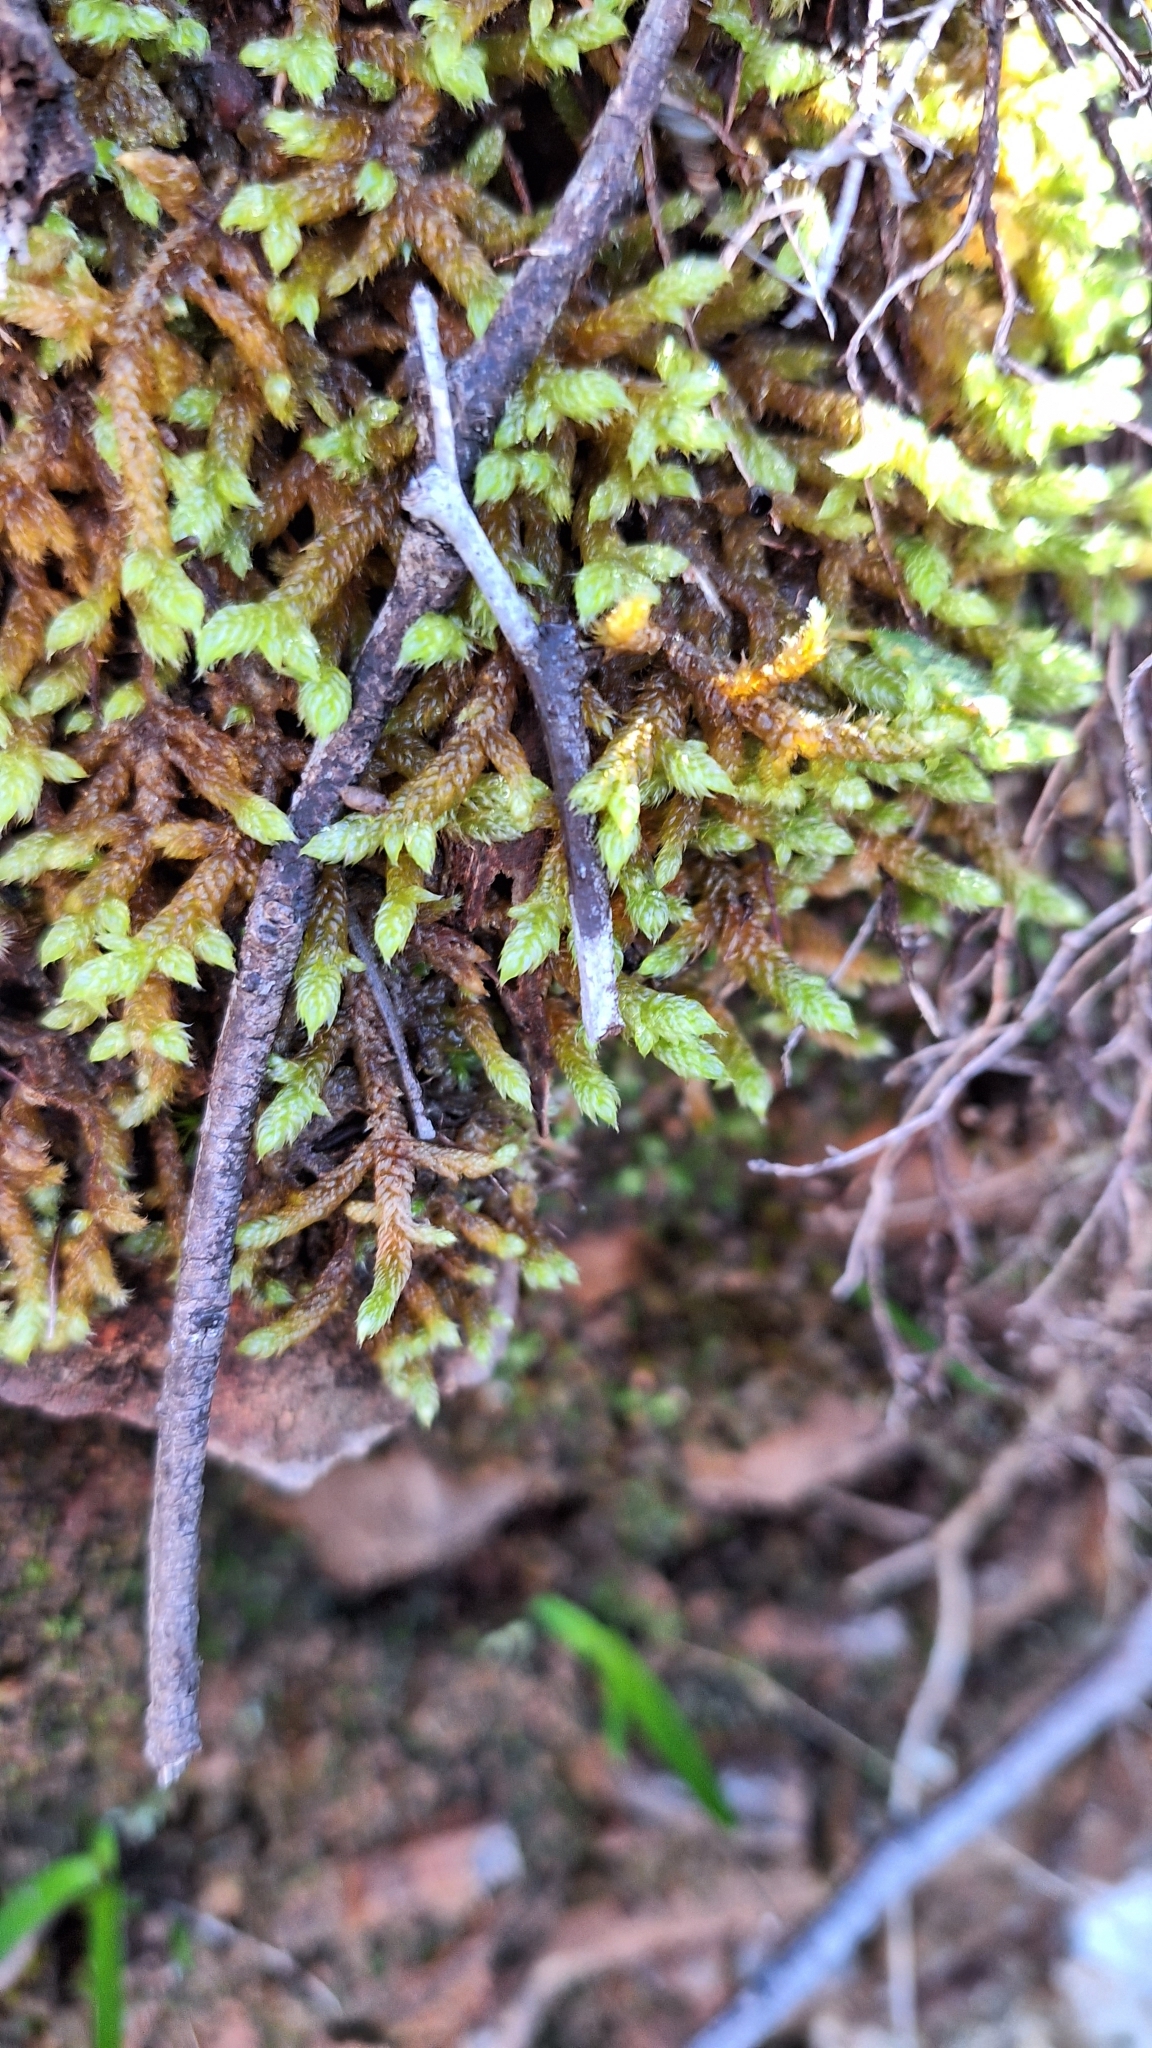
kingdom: Plantae
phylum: Bryophyta
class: Bryopsida
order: Hypnales
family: Hypnaceae
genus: Hypnum
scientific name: Hypnum cupressiforme
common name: Cypress-leaved plait-moss
